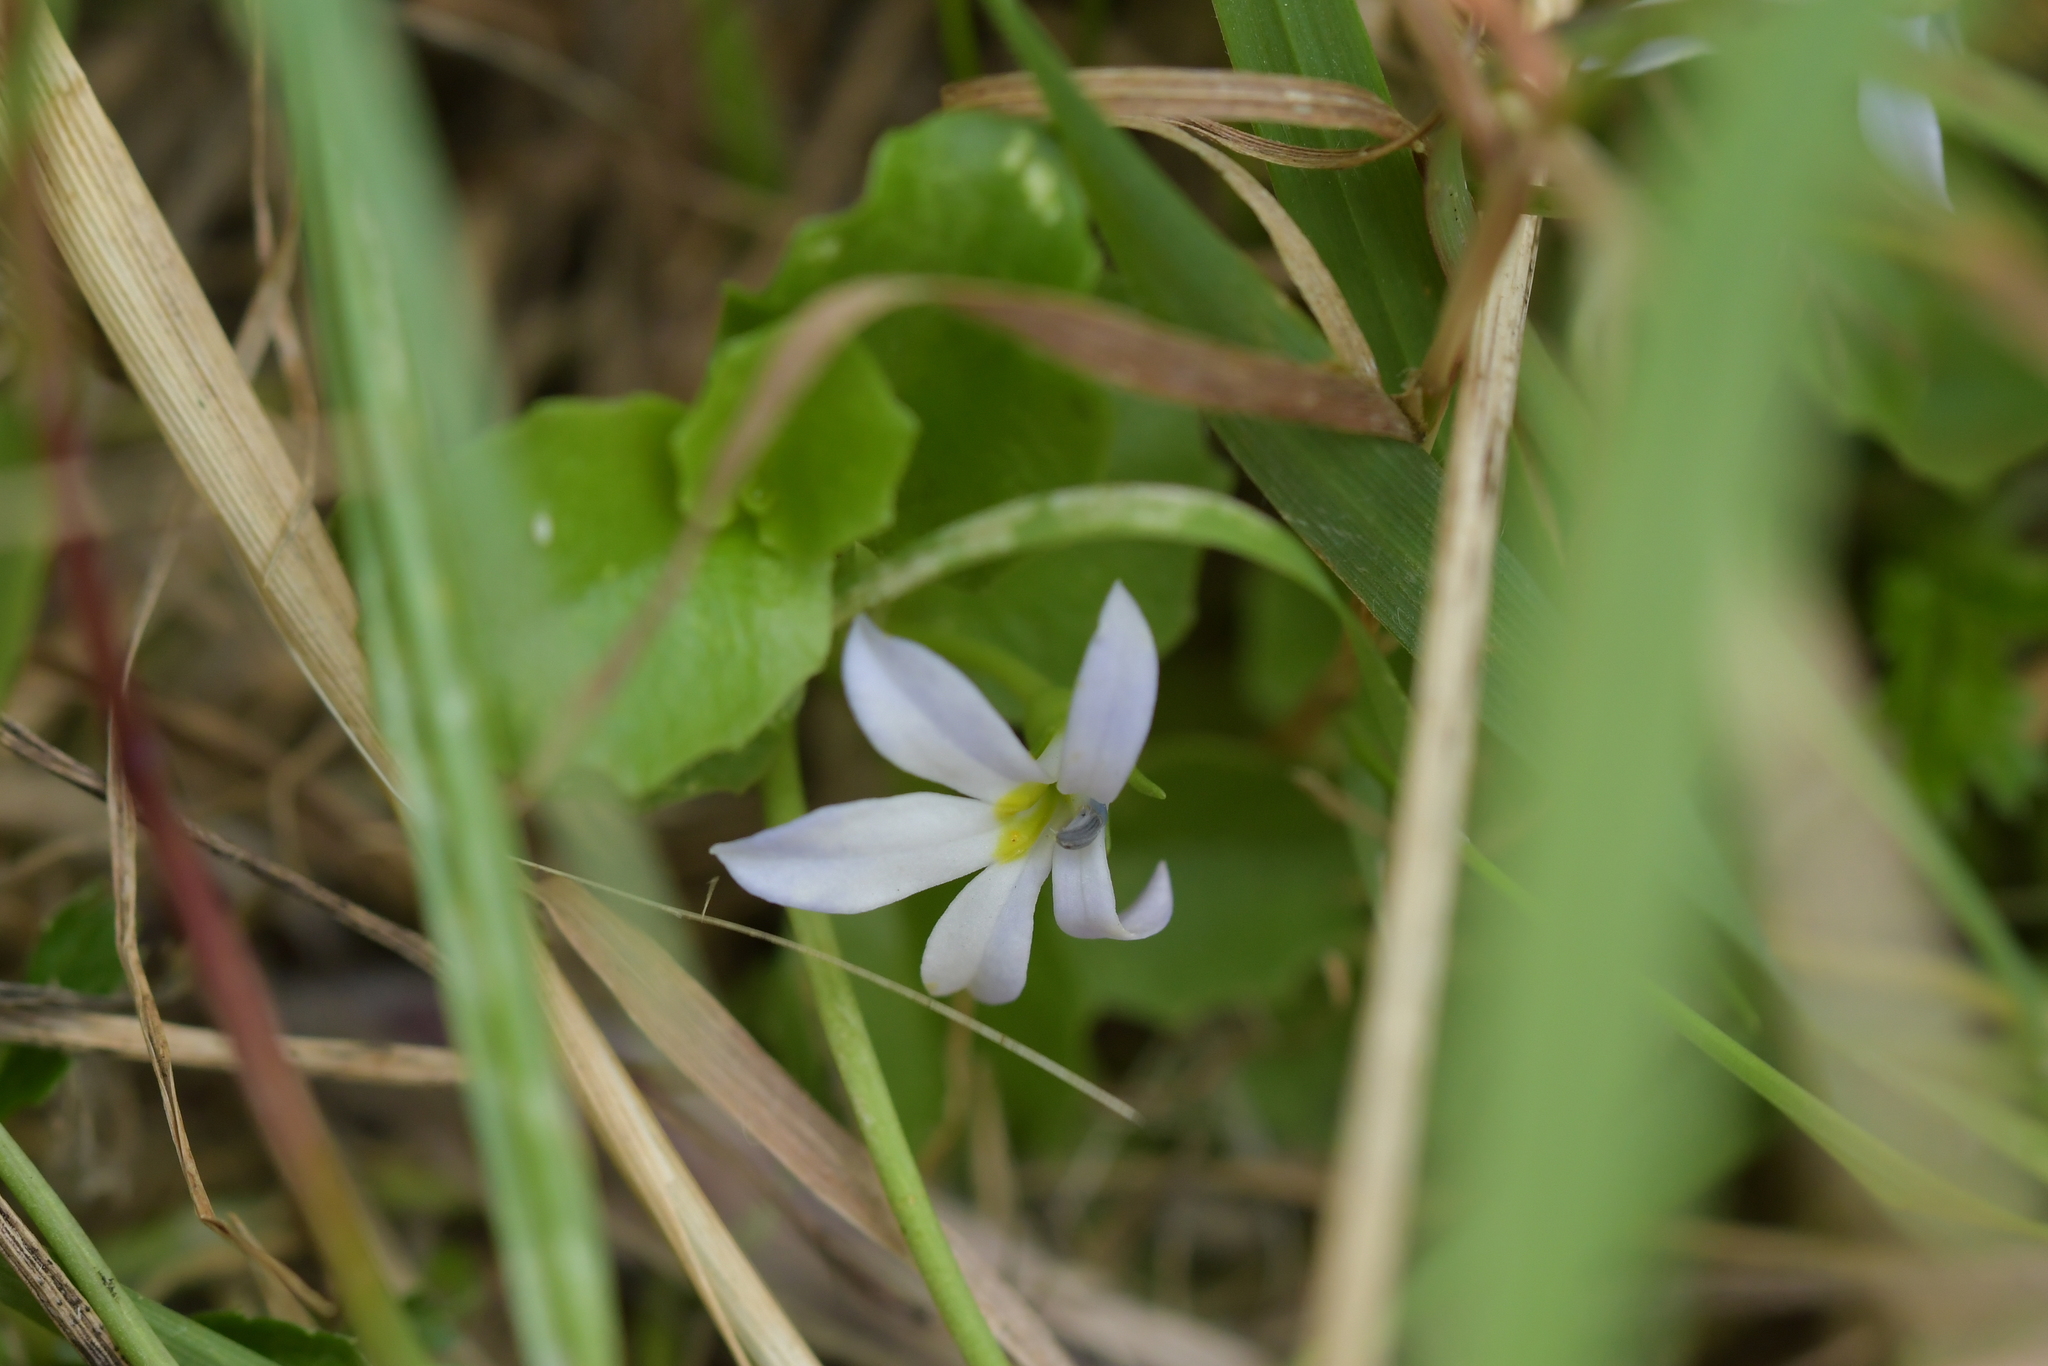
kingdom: Plantae
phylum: Tracheophyta
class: Magnoliopsida
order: Asterales
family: Campanulaceae
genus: Lobelia
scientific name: Lobelia arenaria
